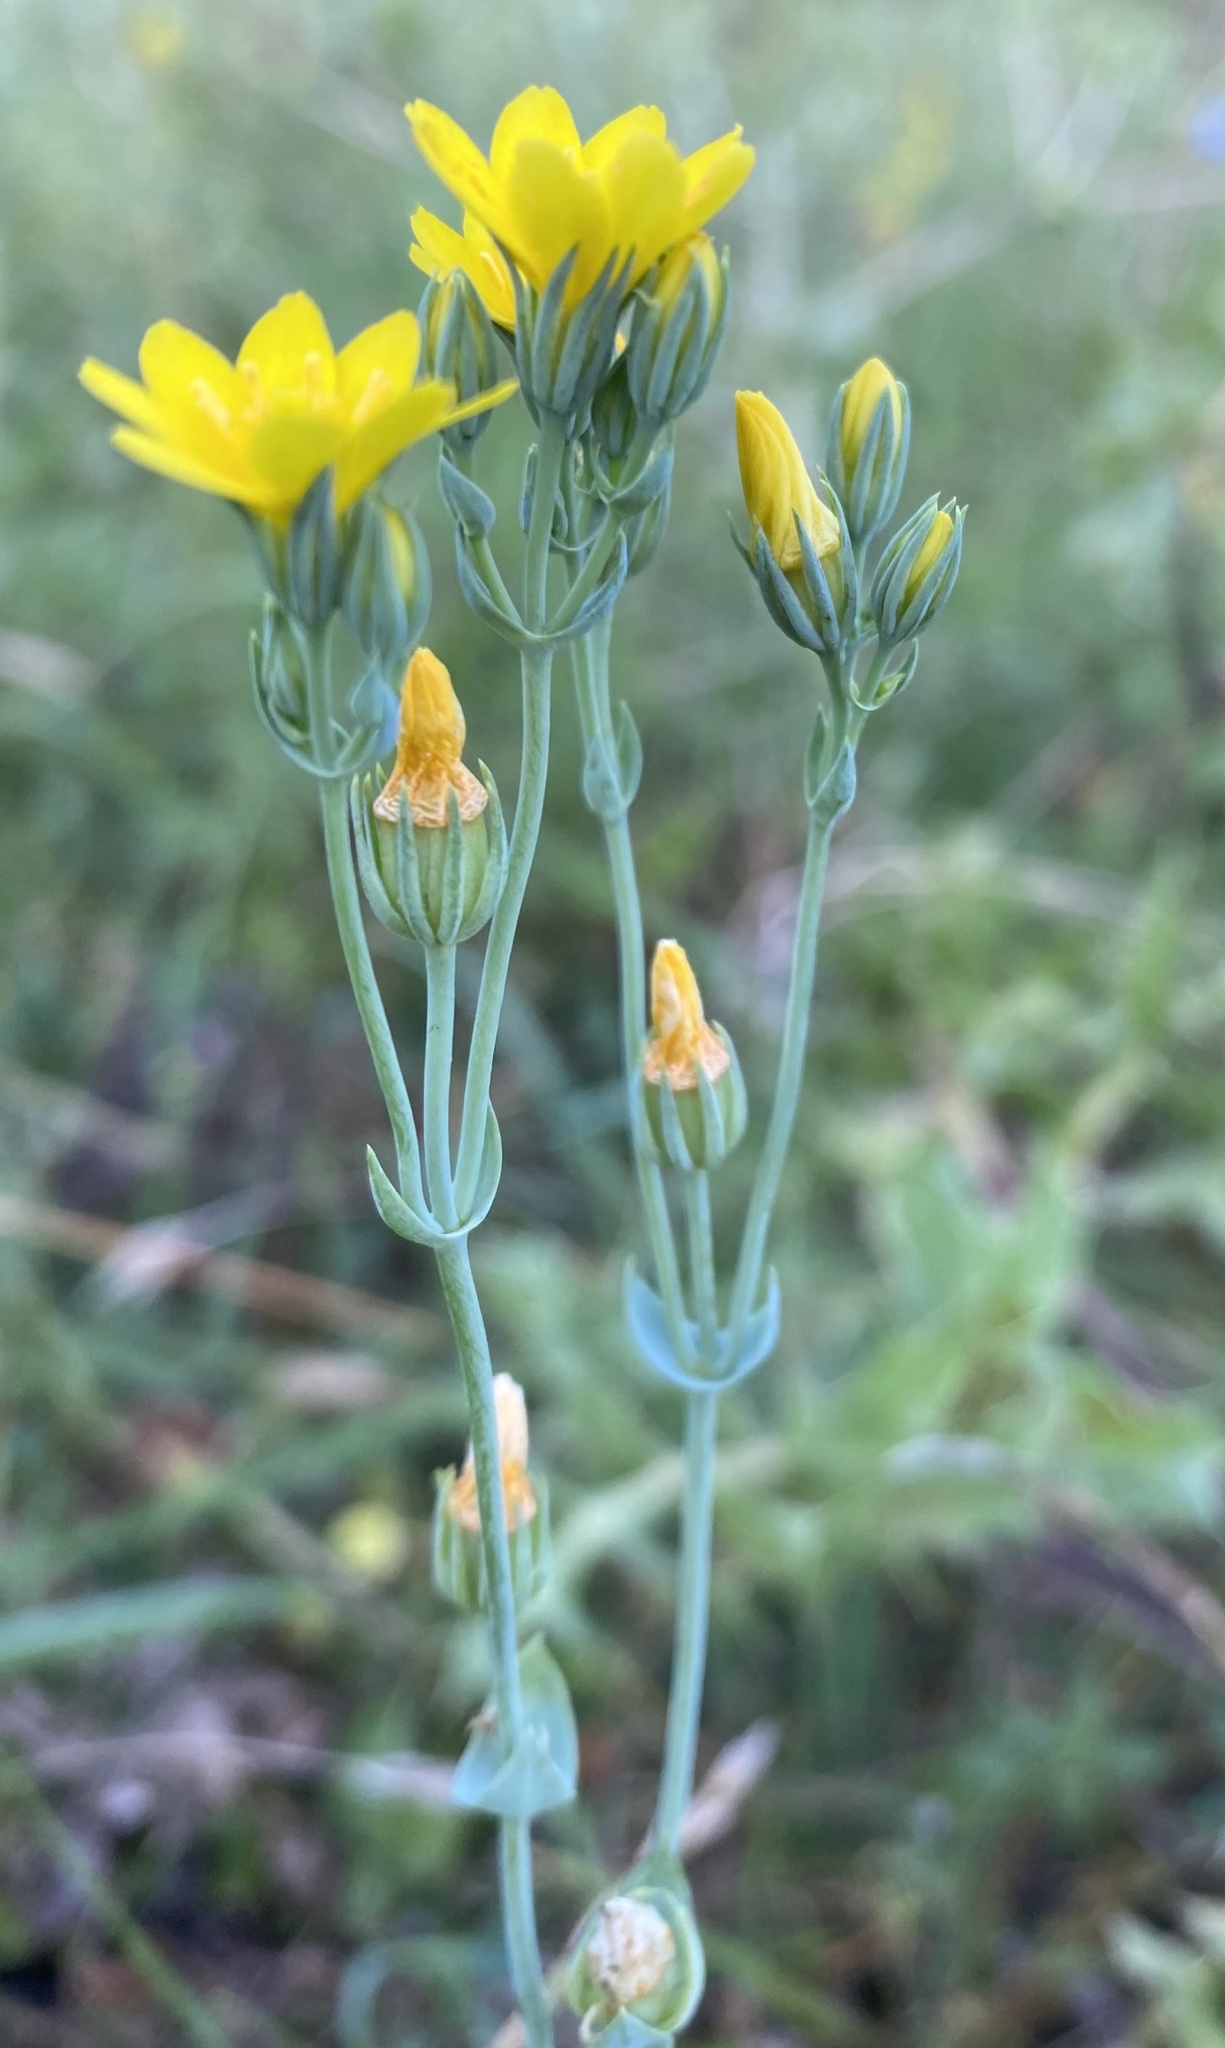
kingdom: Plantae
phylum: Tracheophyta
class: Magnoliopsida
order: Gentianales
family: Gentianaceae
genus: Blackstonia
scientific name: Blackstonia perfoliata
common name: Yellow-wort
